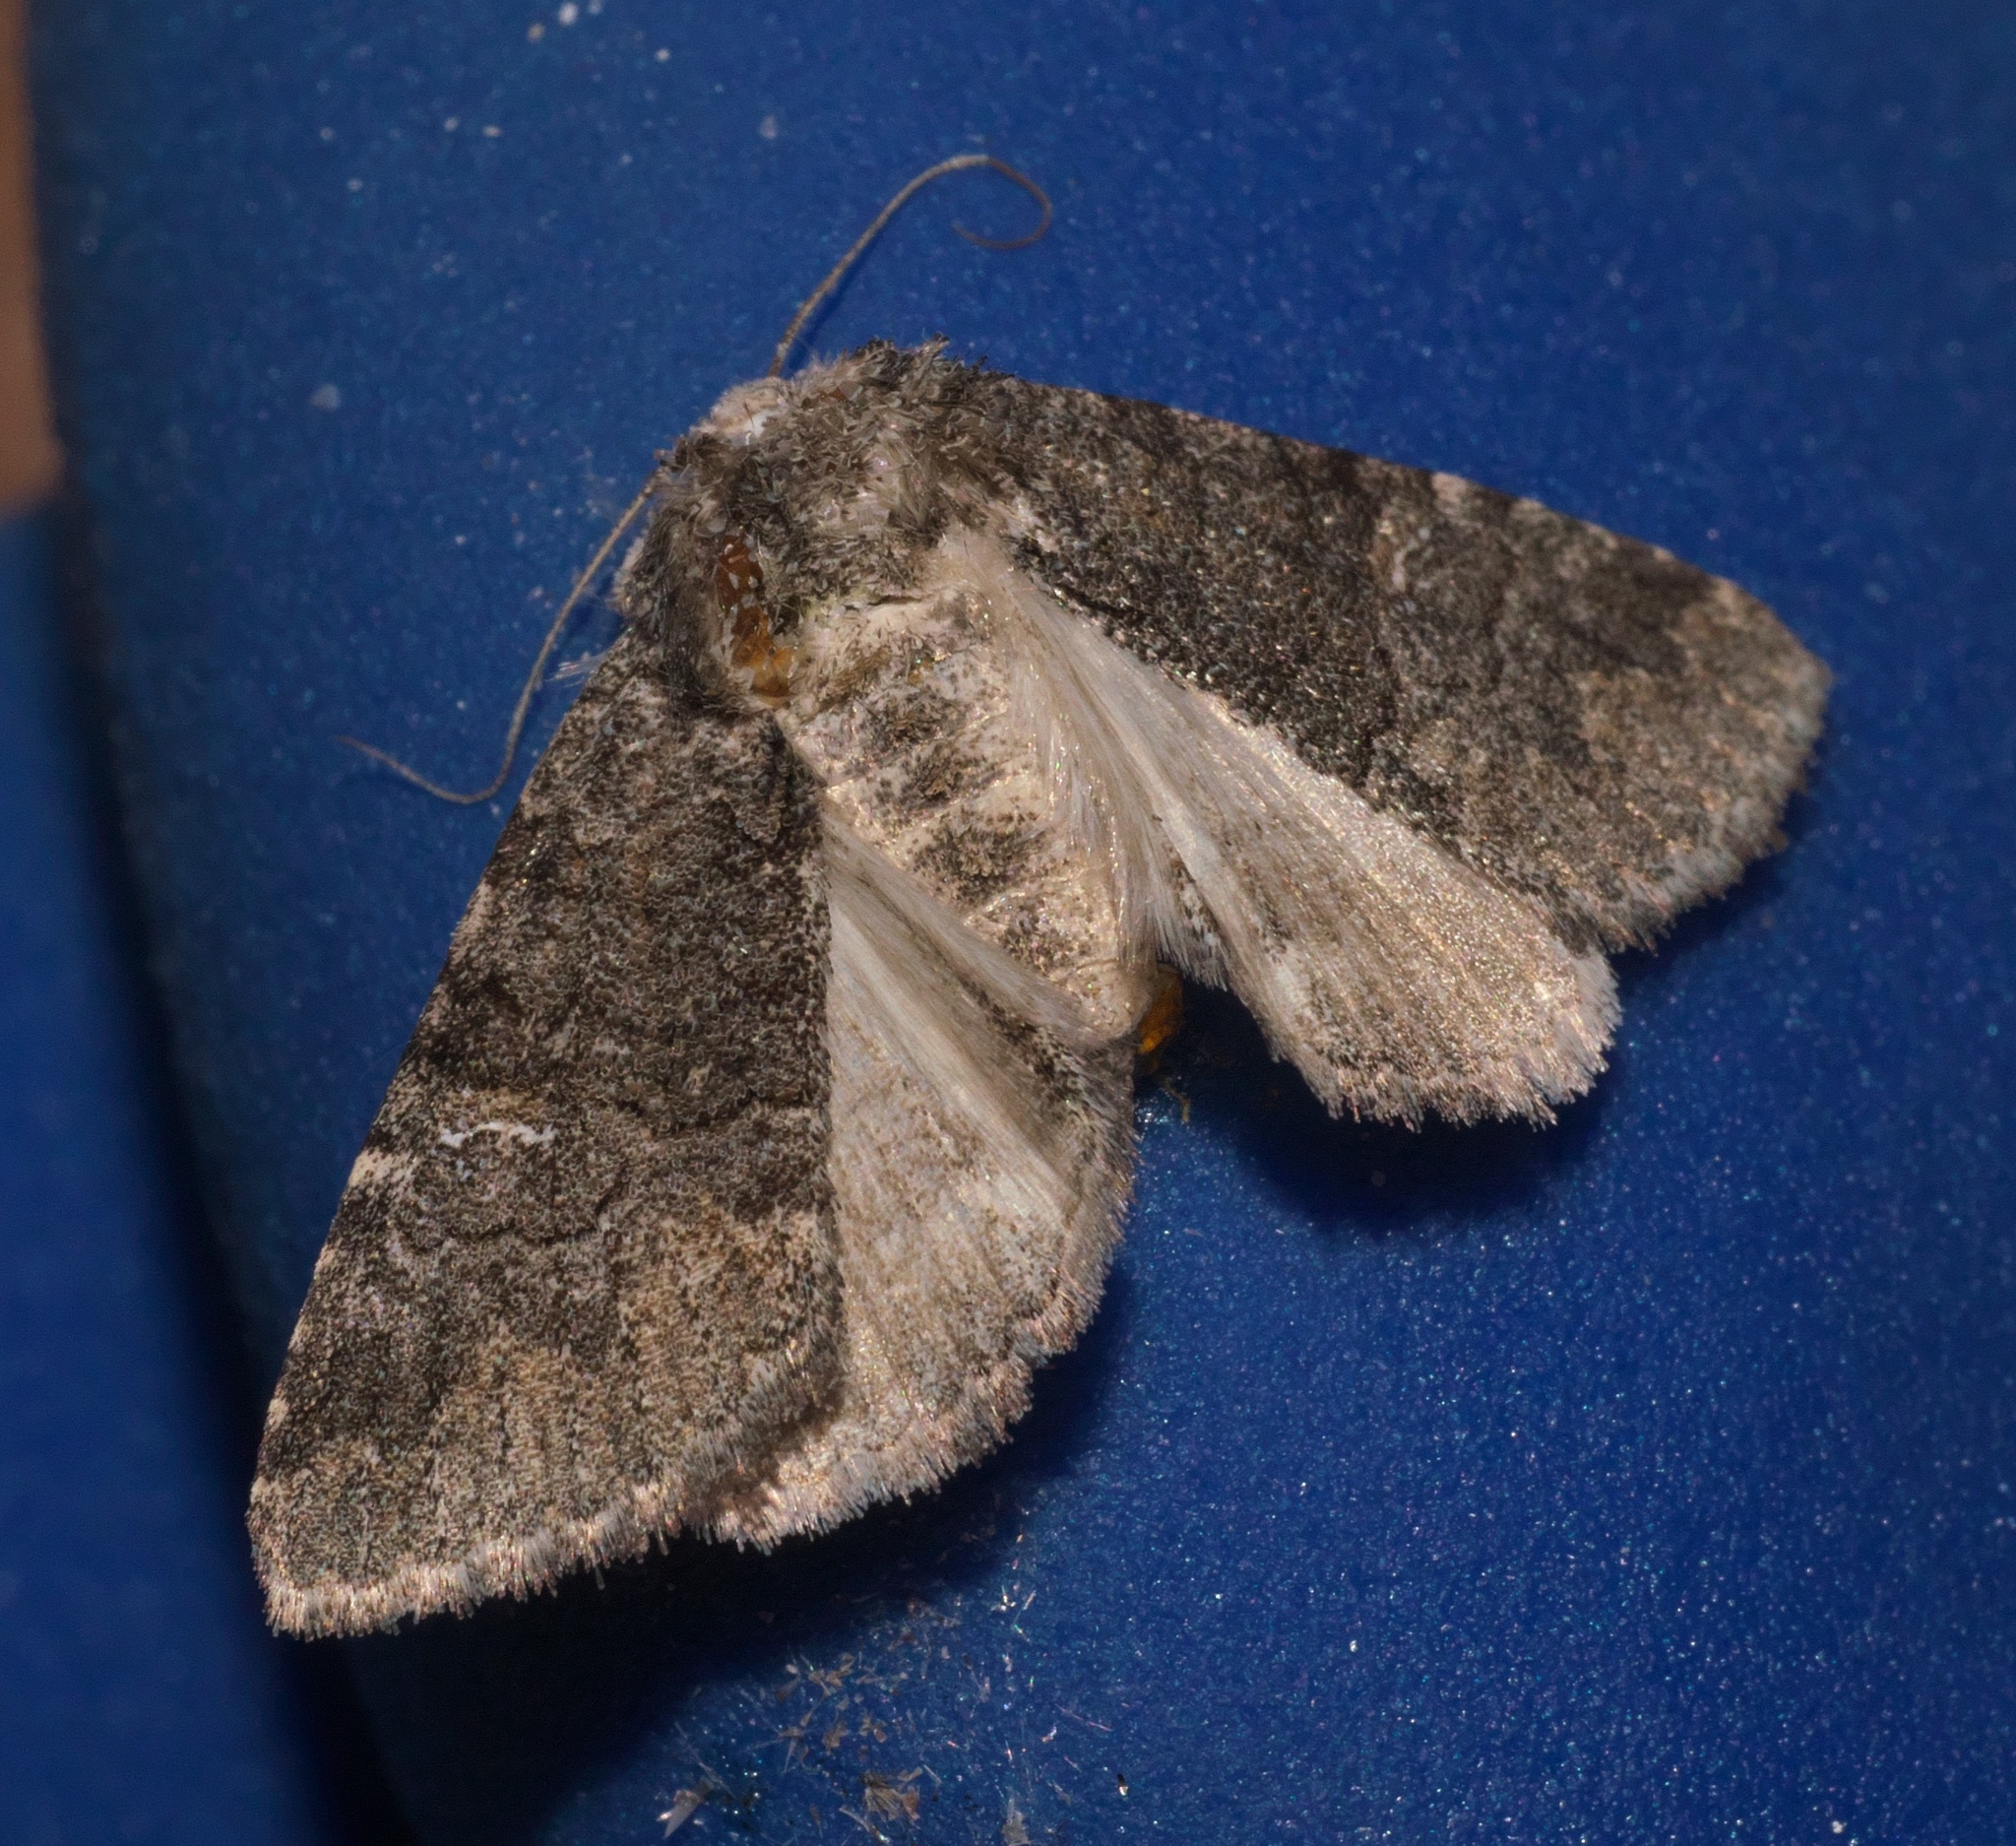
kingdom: Animalia
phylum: Arthropoda
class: Insecta
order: Lepidoptera
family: Erebidae
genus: Elousa
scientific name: Elousa mima
